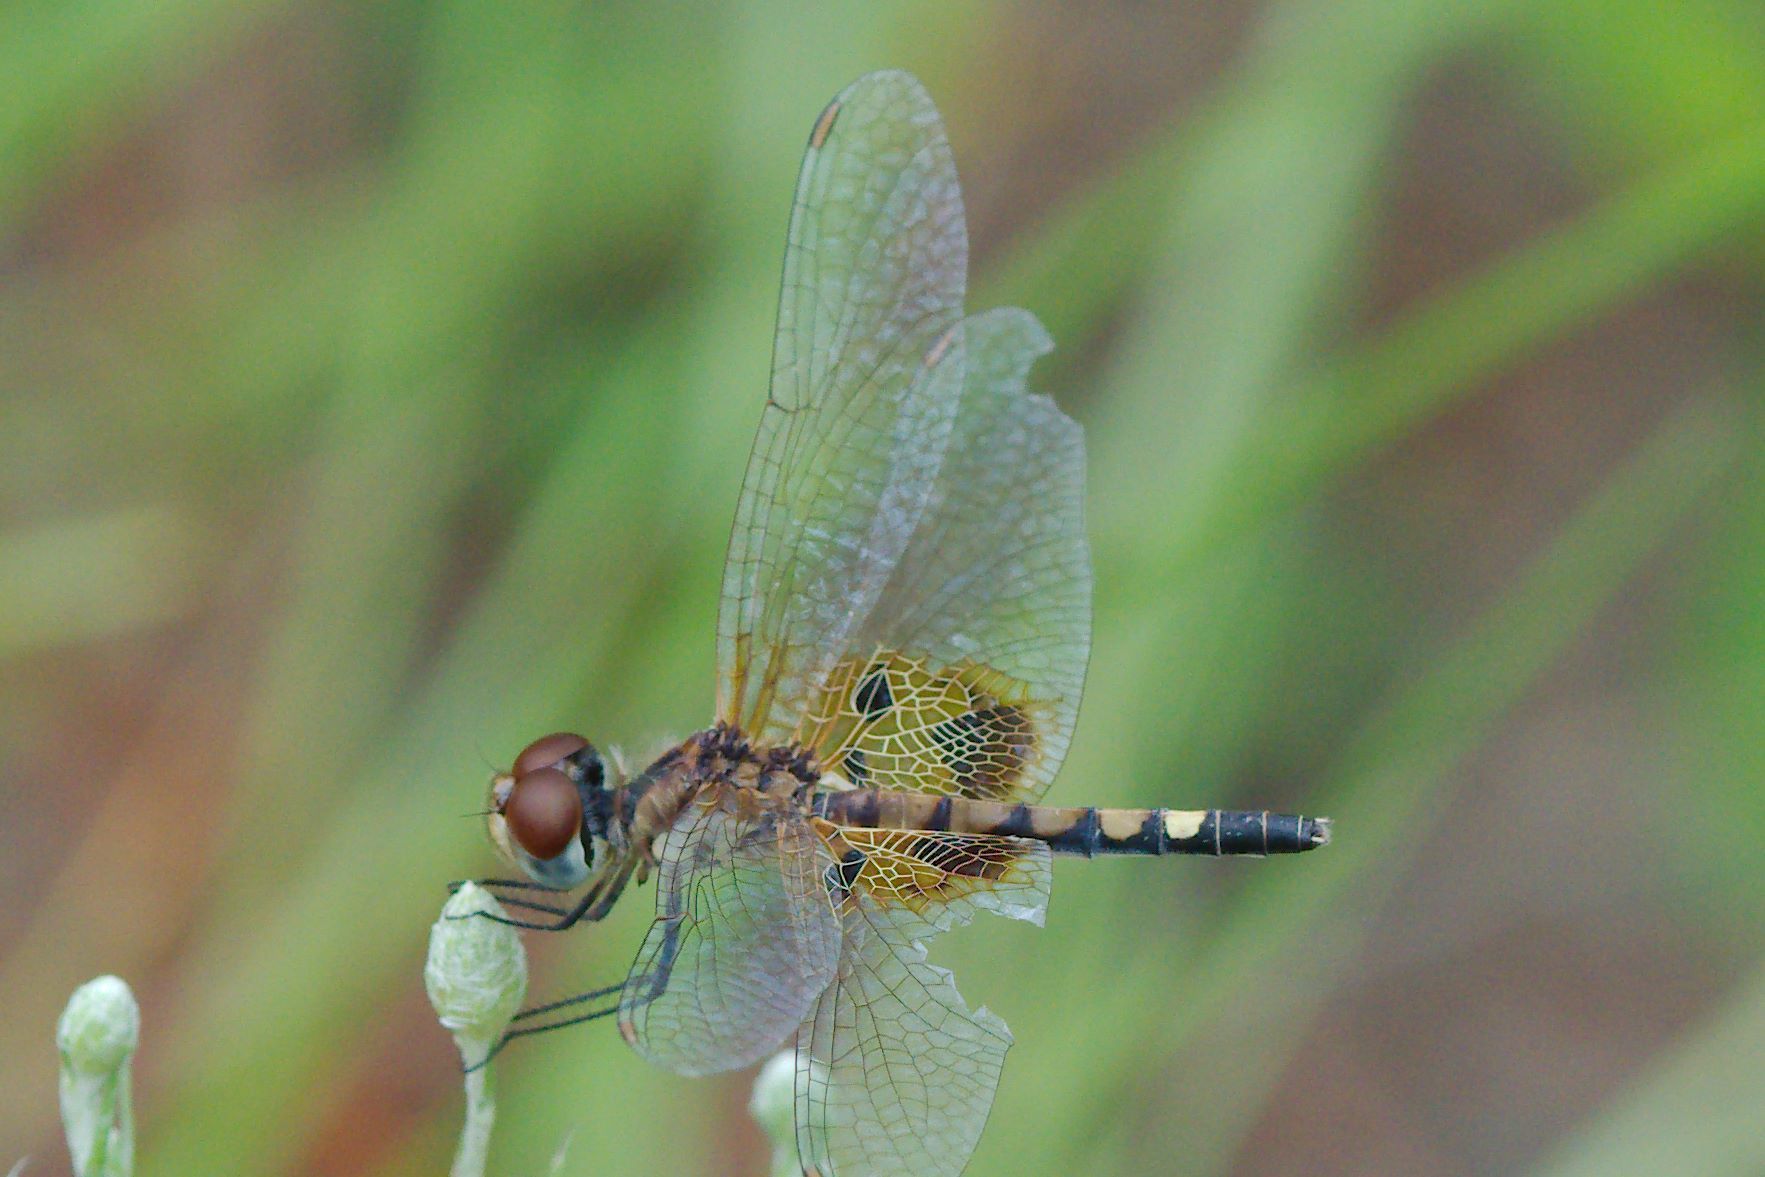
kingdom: Animalia
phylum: Arthropoda
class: Insecta
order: Odonata
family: Libellulidae
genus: Celithemis
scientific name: Celithemis amanda
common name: Amanda's pennant
